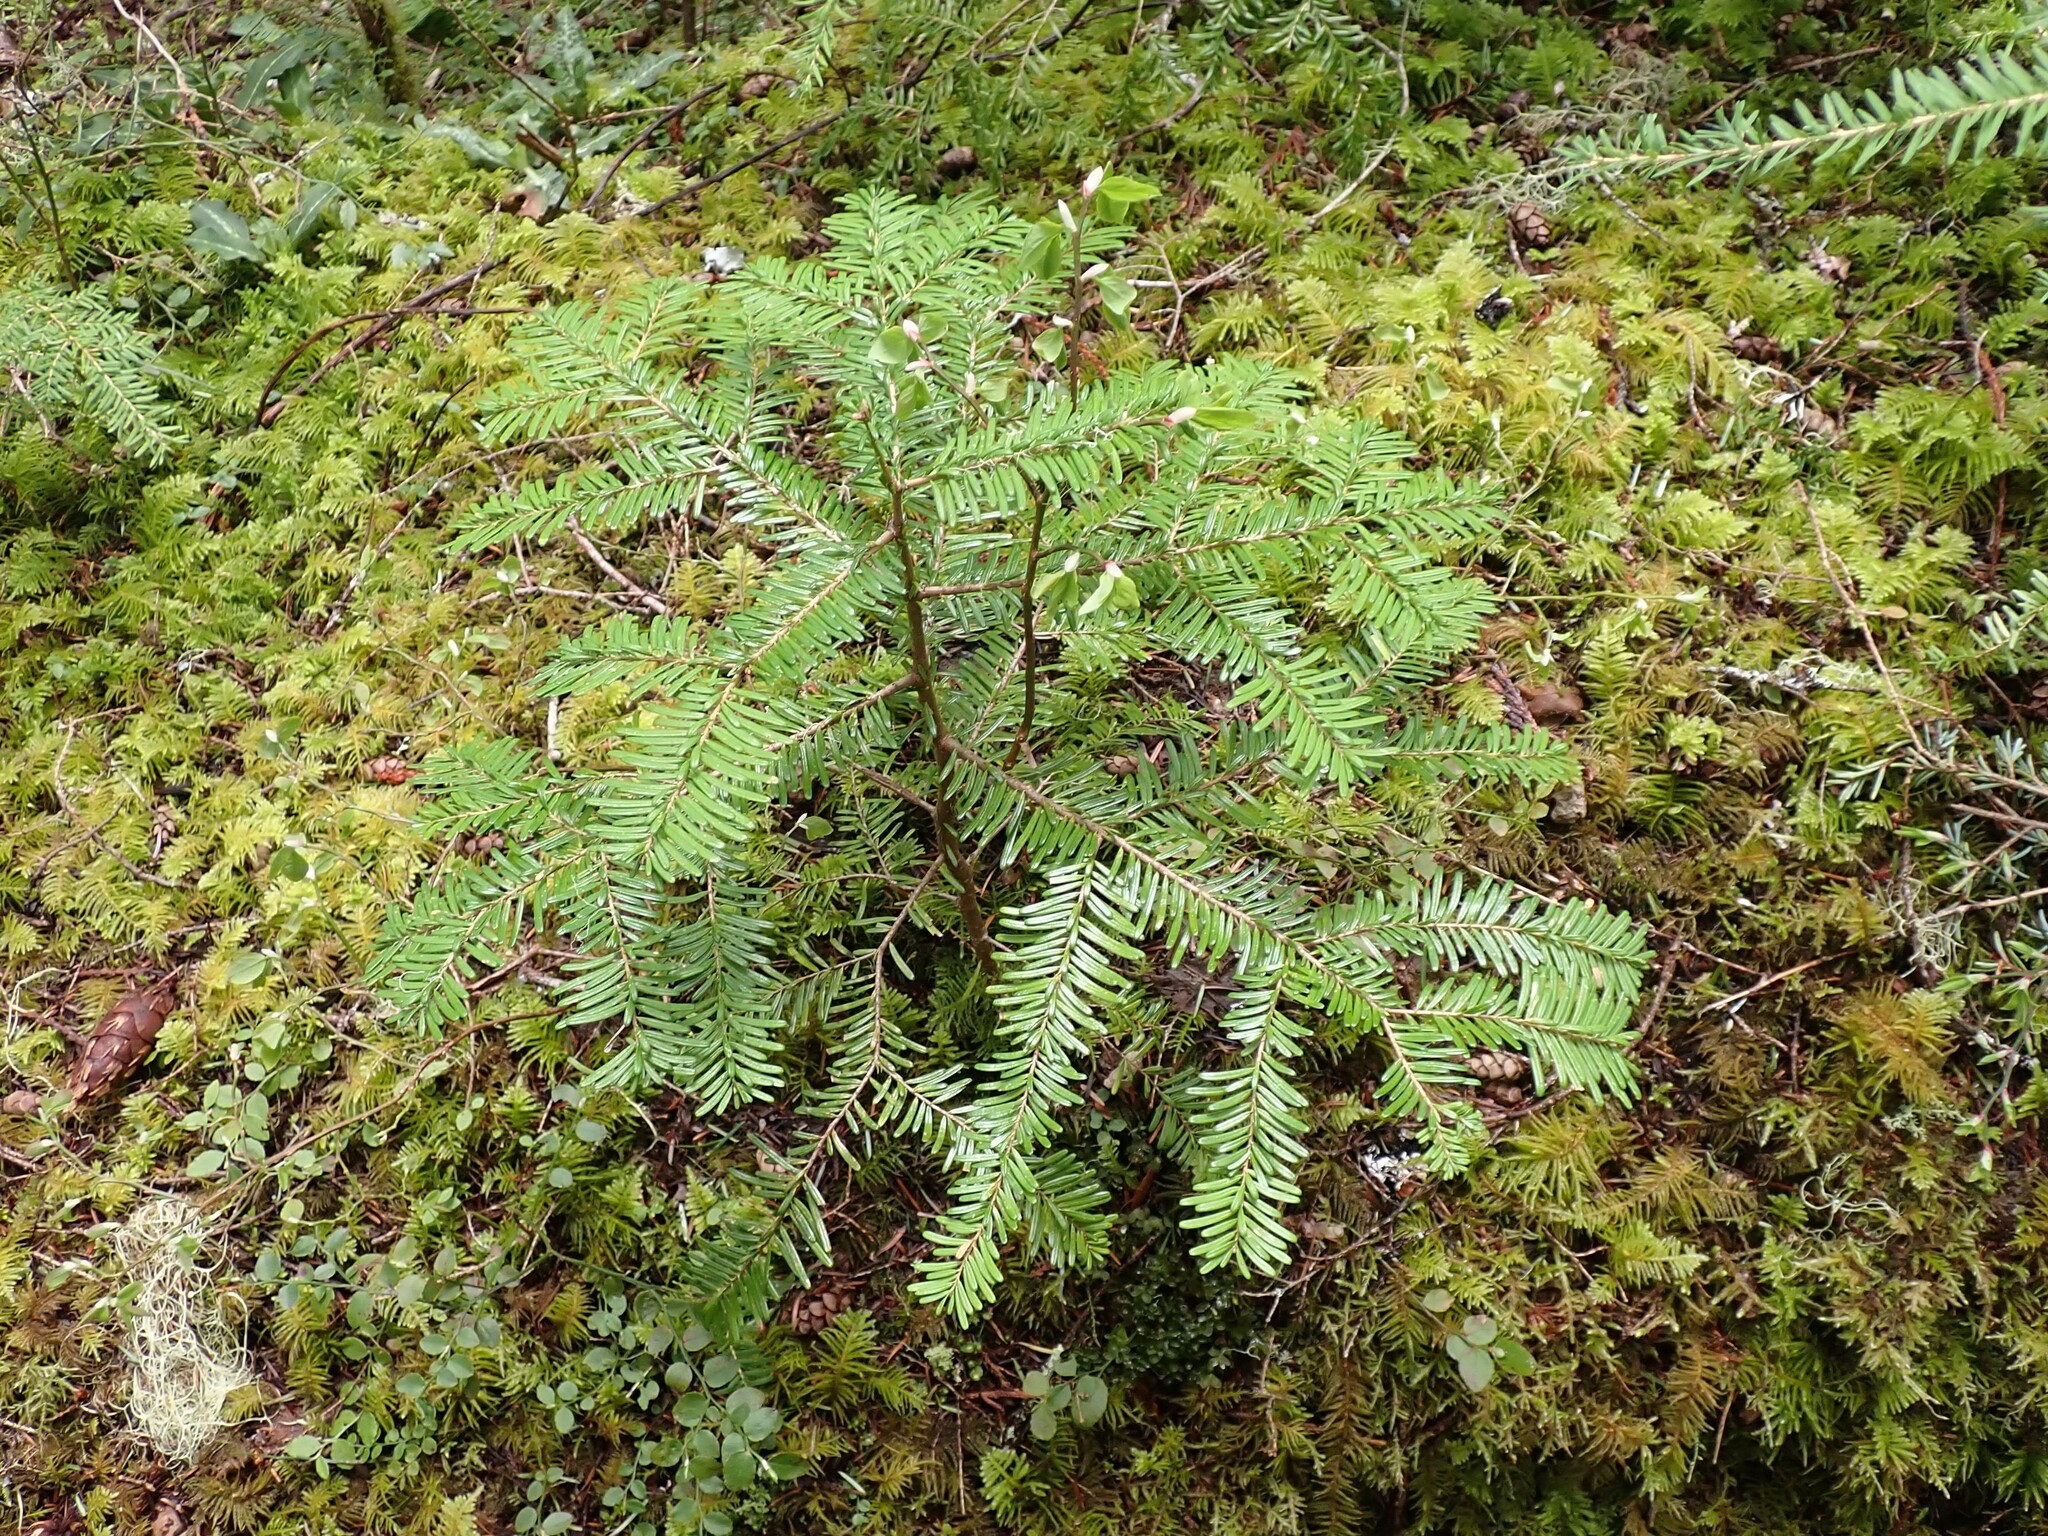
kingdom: Plantae
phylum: Tracheophyta
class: Pinopsida
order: Pinales
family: Pinaceae
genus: Abies
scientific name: Abies amabilis
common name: Pacific silver fir
